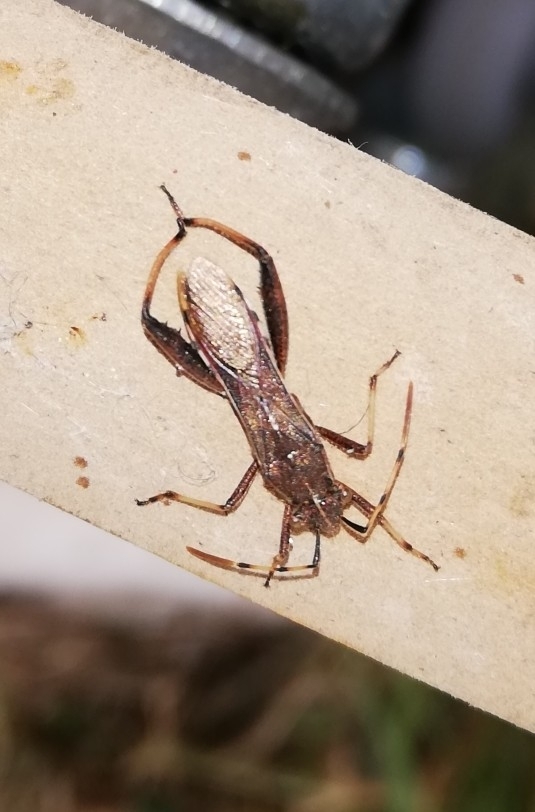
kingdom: Animalia
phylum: Arthropoda
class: Insecta
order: Hemiptera
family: Alydidae
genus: Camptopus
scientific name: Camptopus lateralis
